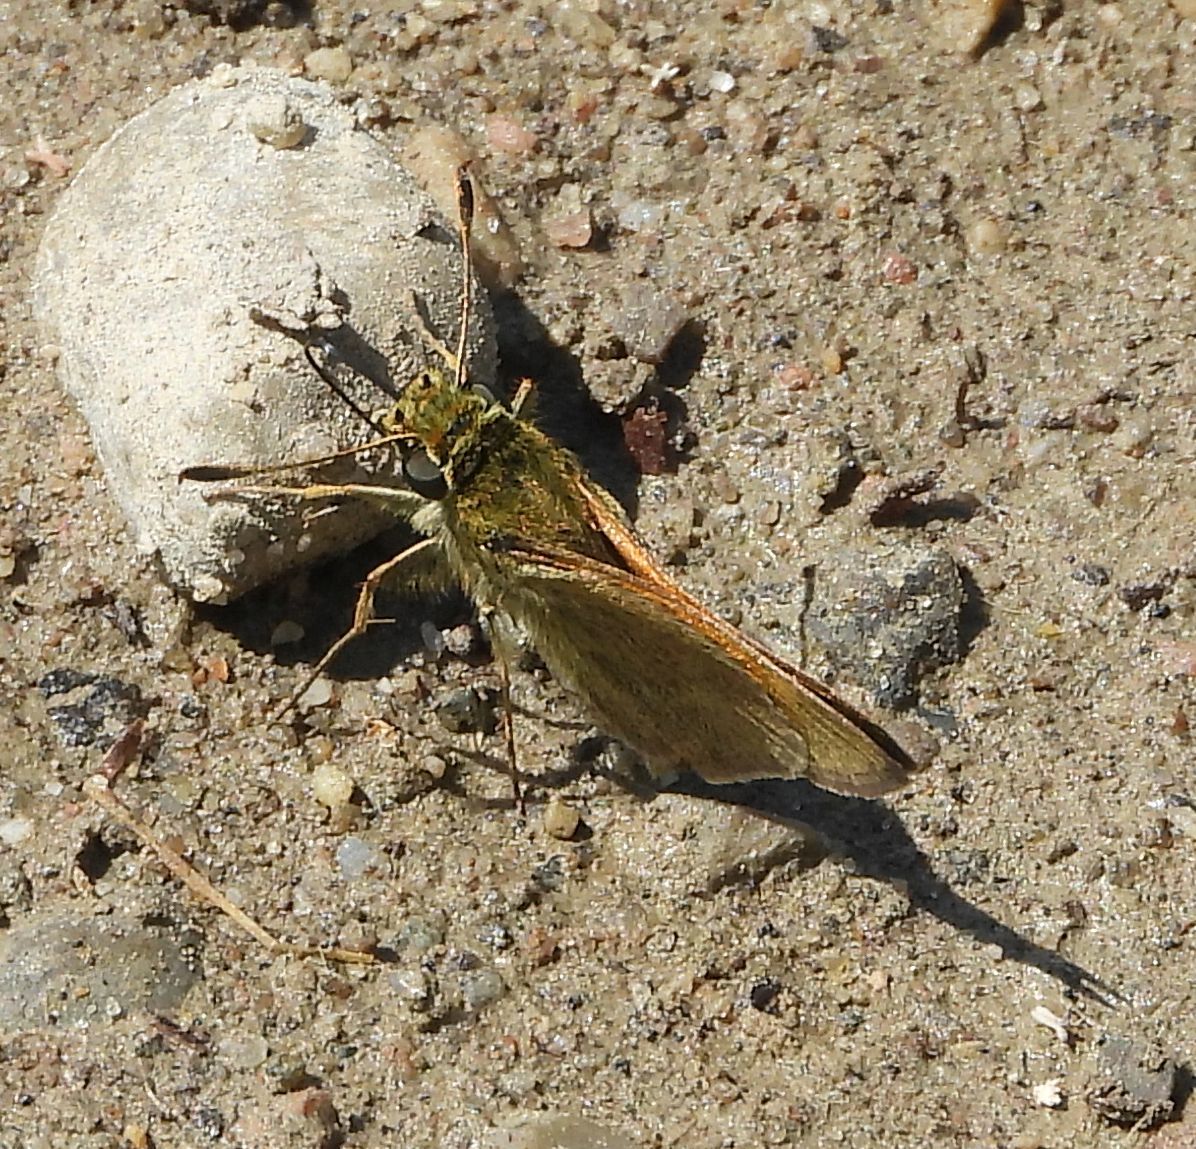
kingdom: Animalia
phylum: Arthropoda
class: Insecta
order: Lepidoptera
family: Hesperiidae
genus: Polites
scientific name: Polites themistocles
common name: Tawny-edged skipper
